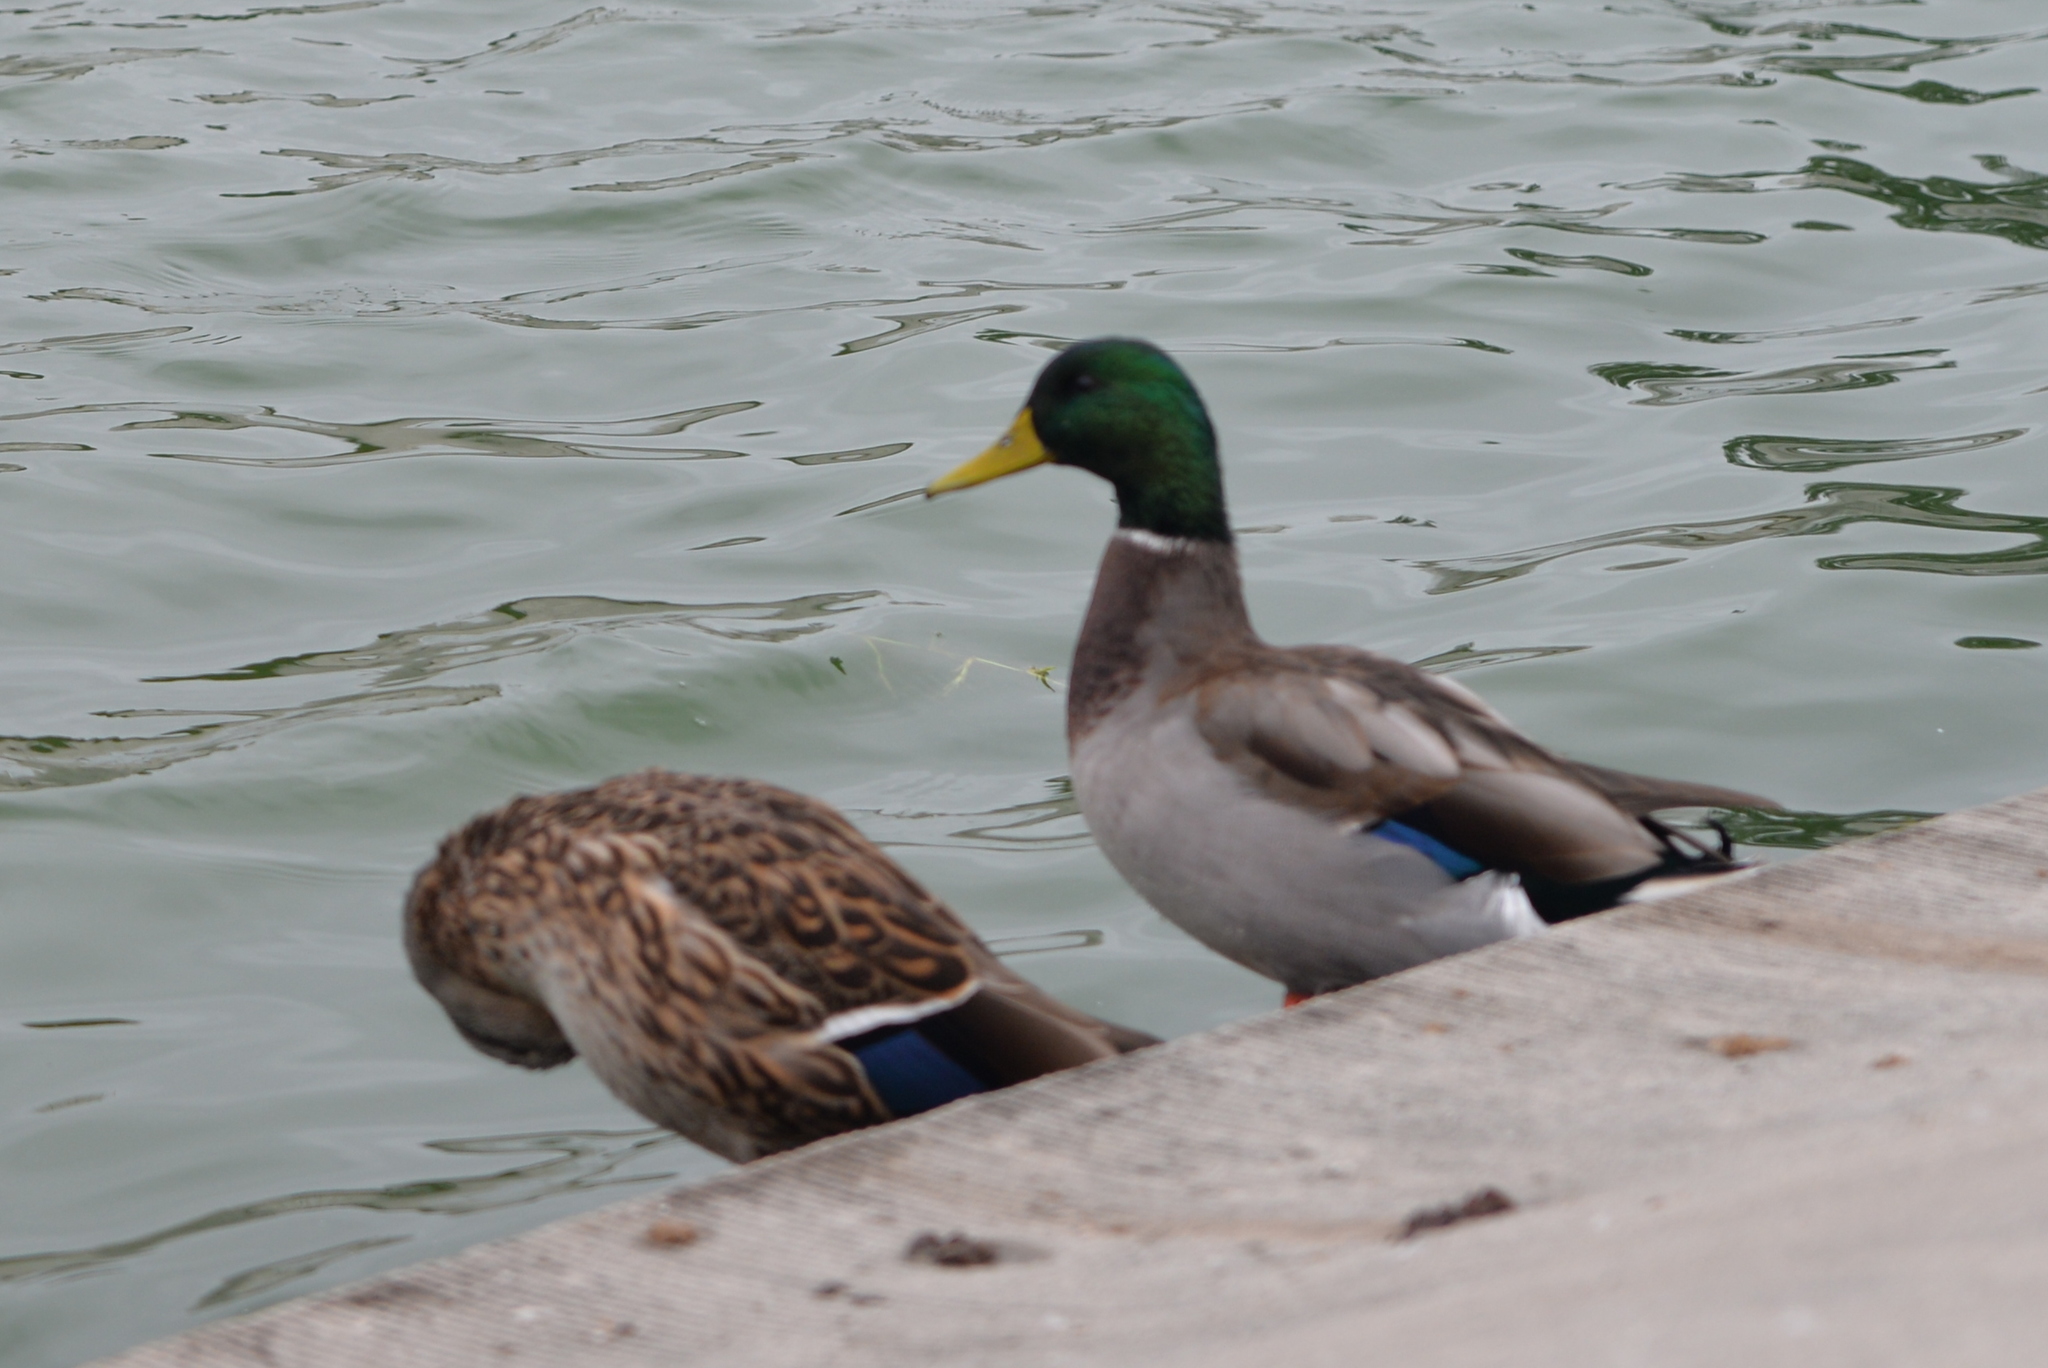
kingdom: Animalia
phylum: Chordata
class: Aves
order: Anseriformes
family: Anatidae
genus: Anas
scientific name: Anas platyrhynchos
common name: Mallard
